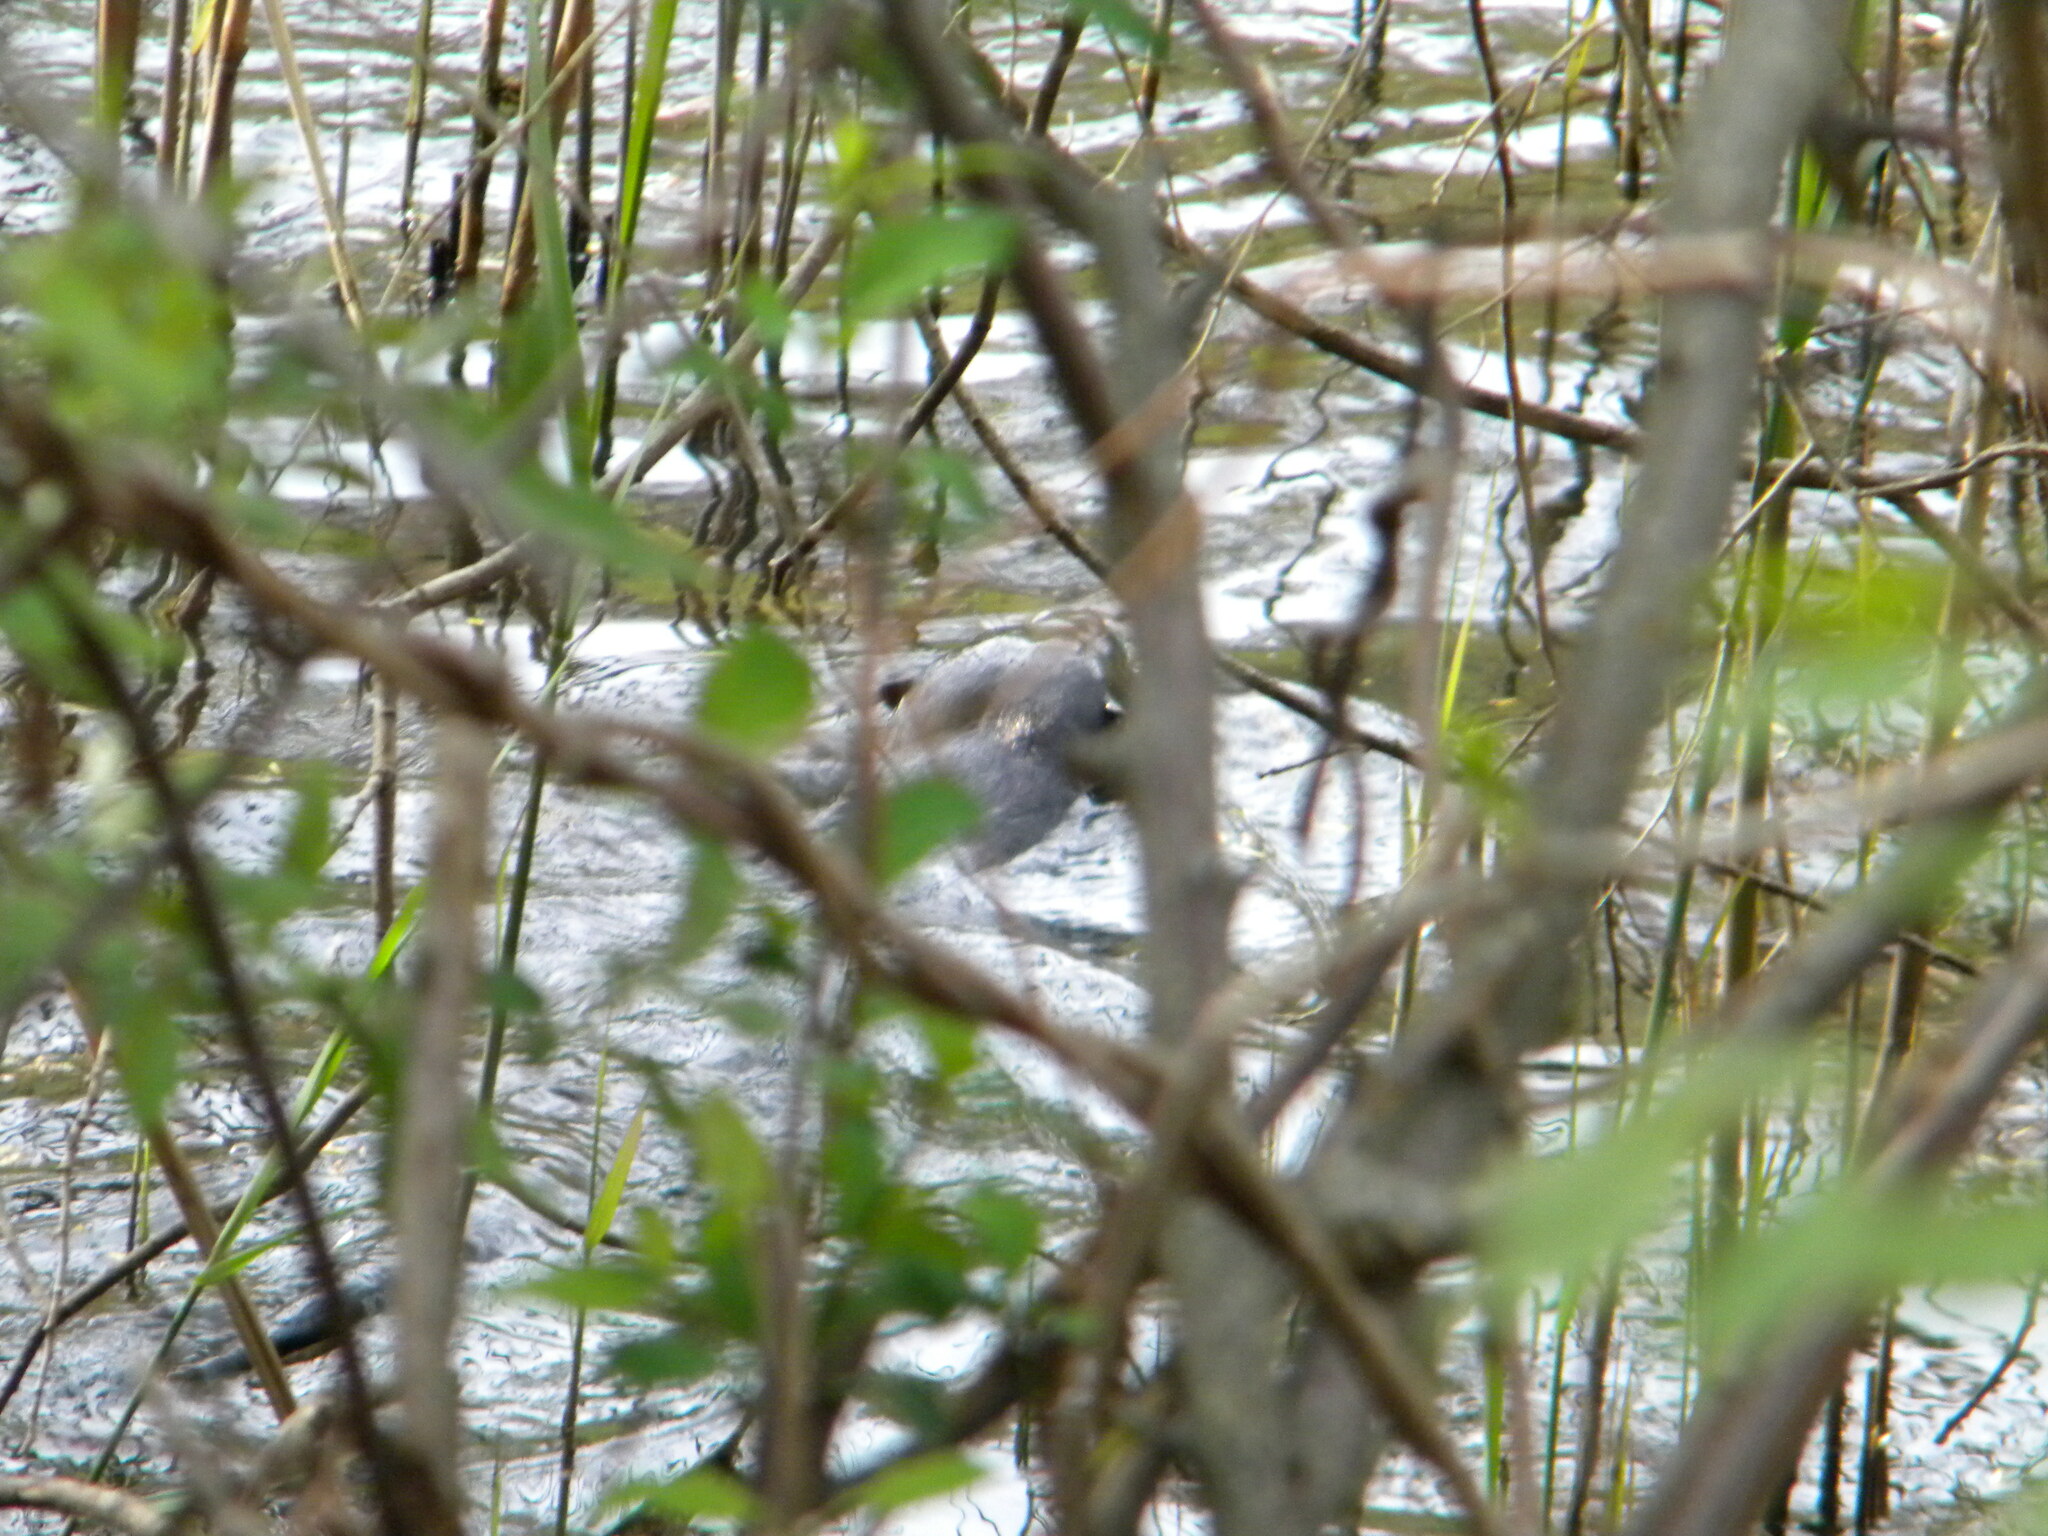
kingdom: Animalia
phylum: Chordata
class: Mammalia
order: Carnivora
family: Mustelidae
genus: Lontra
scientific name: Lontra canadensis
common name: North american river otter
